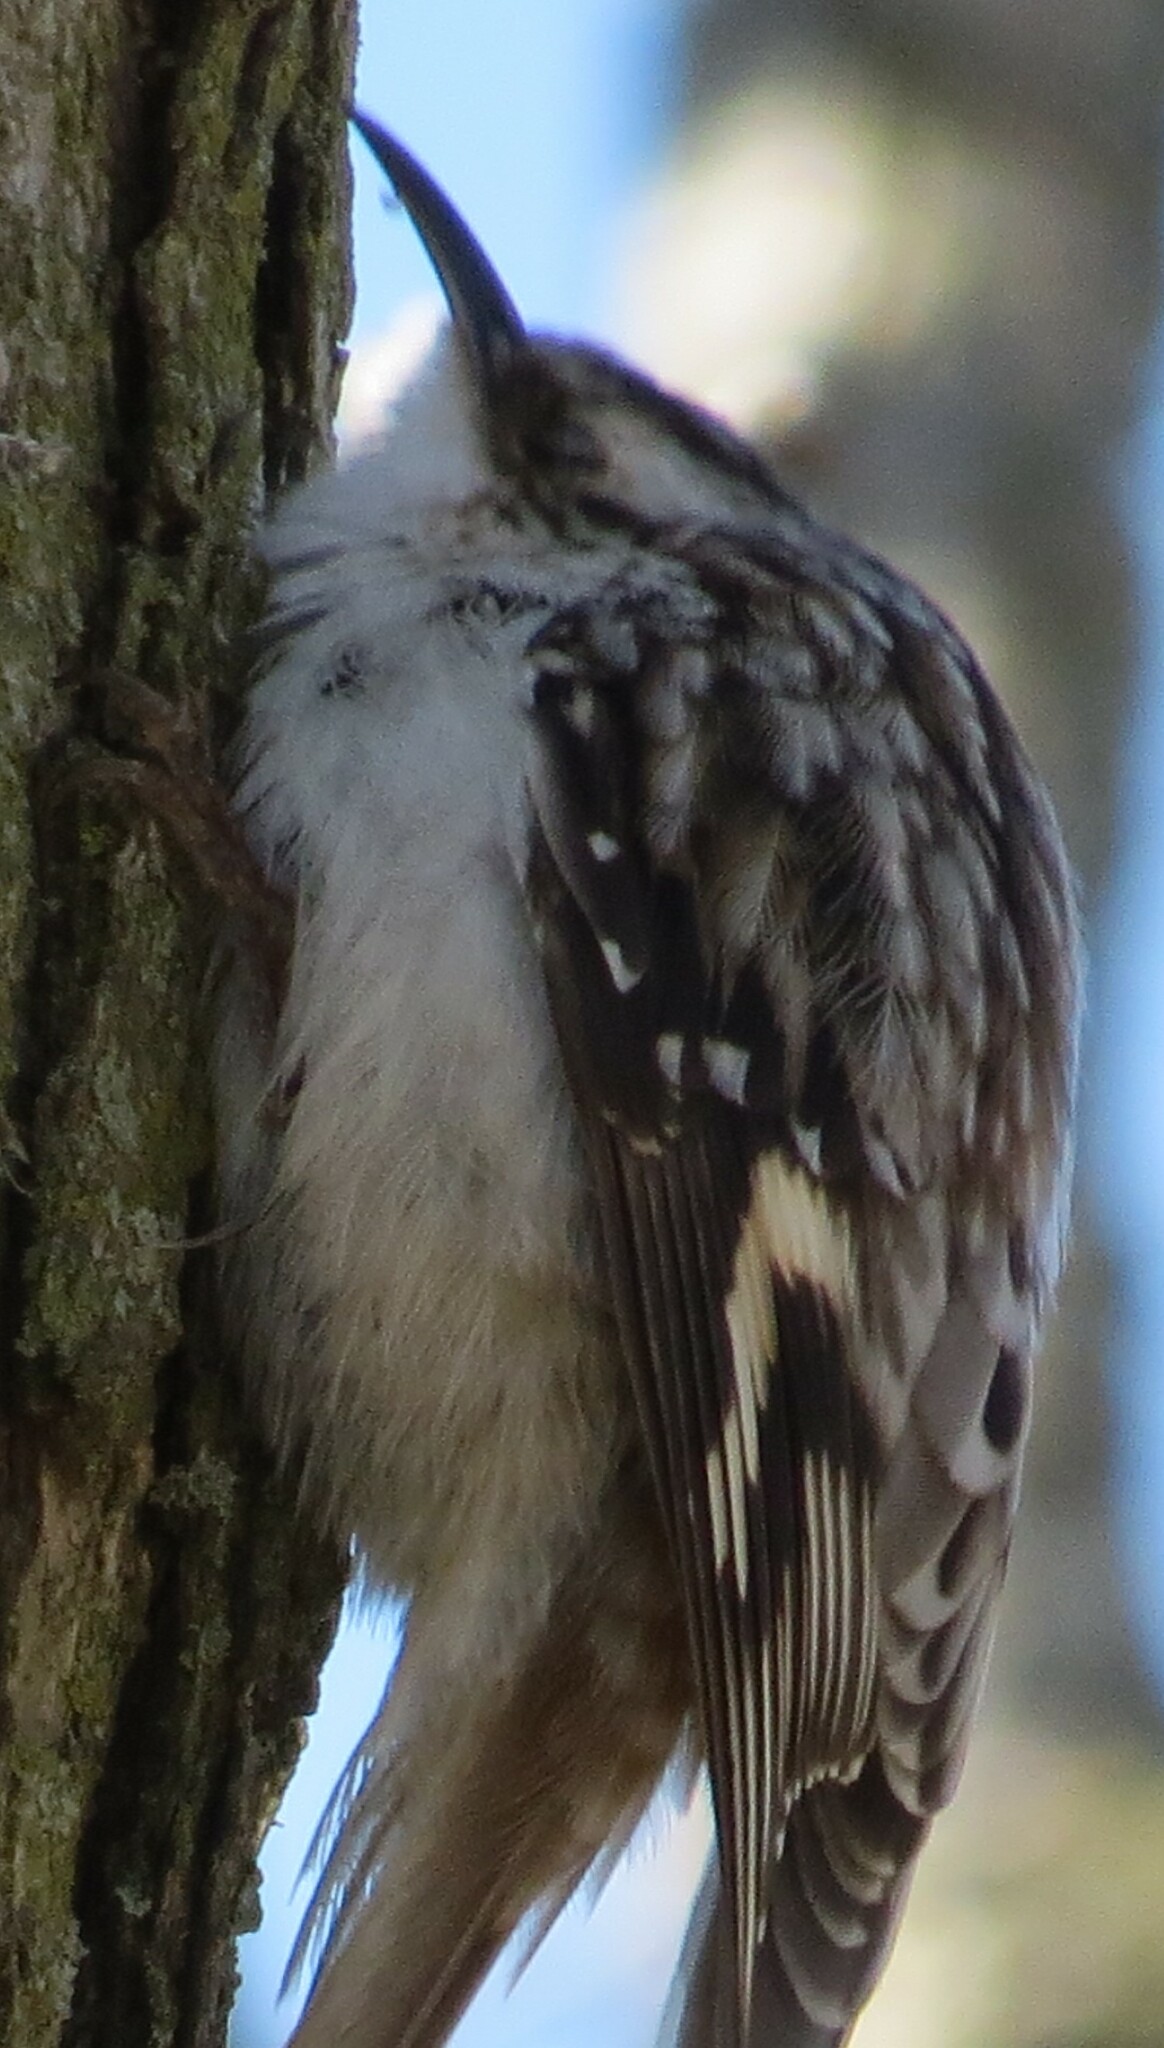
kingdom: Animalia
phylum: Chordata
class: Aves
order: Passeriformes
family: Certhiidae
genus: Certhia
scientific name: Certhia americana
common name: Brown creeper
